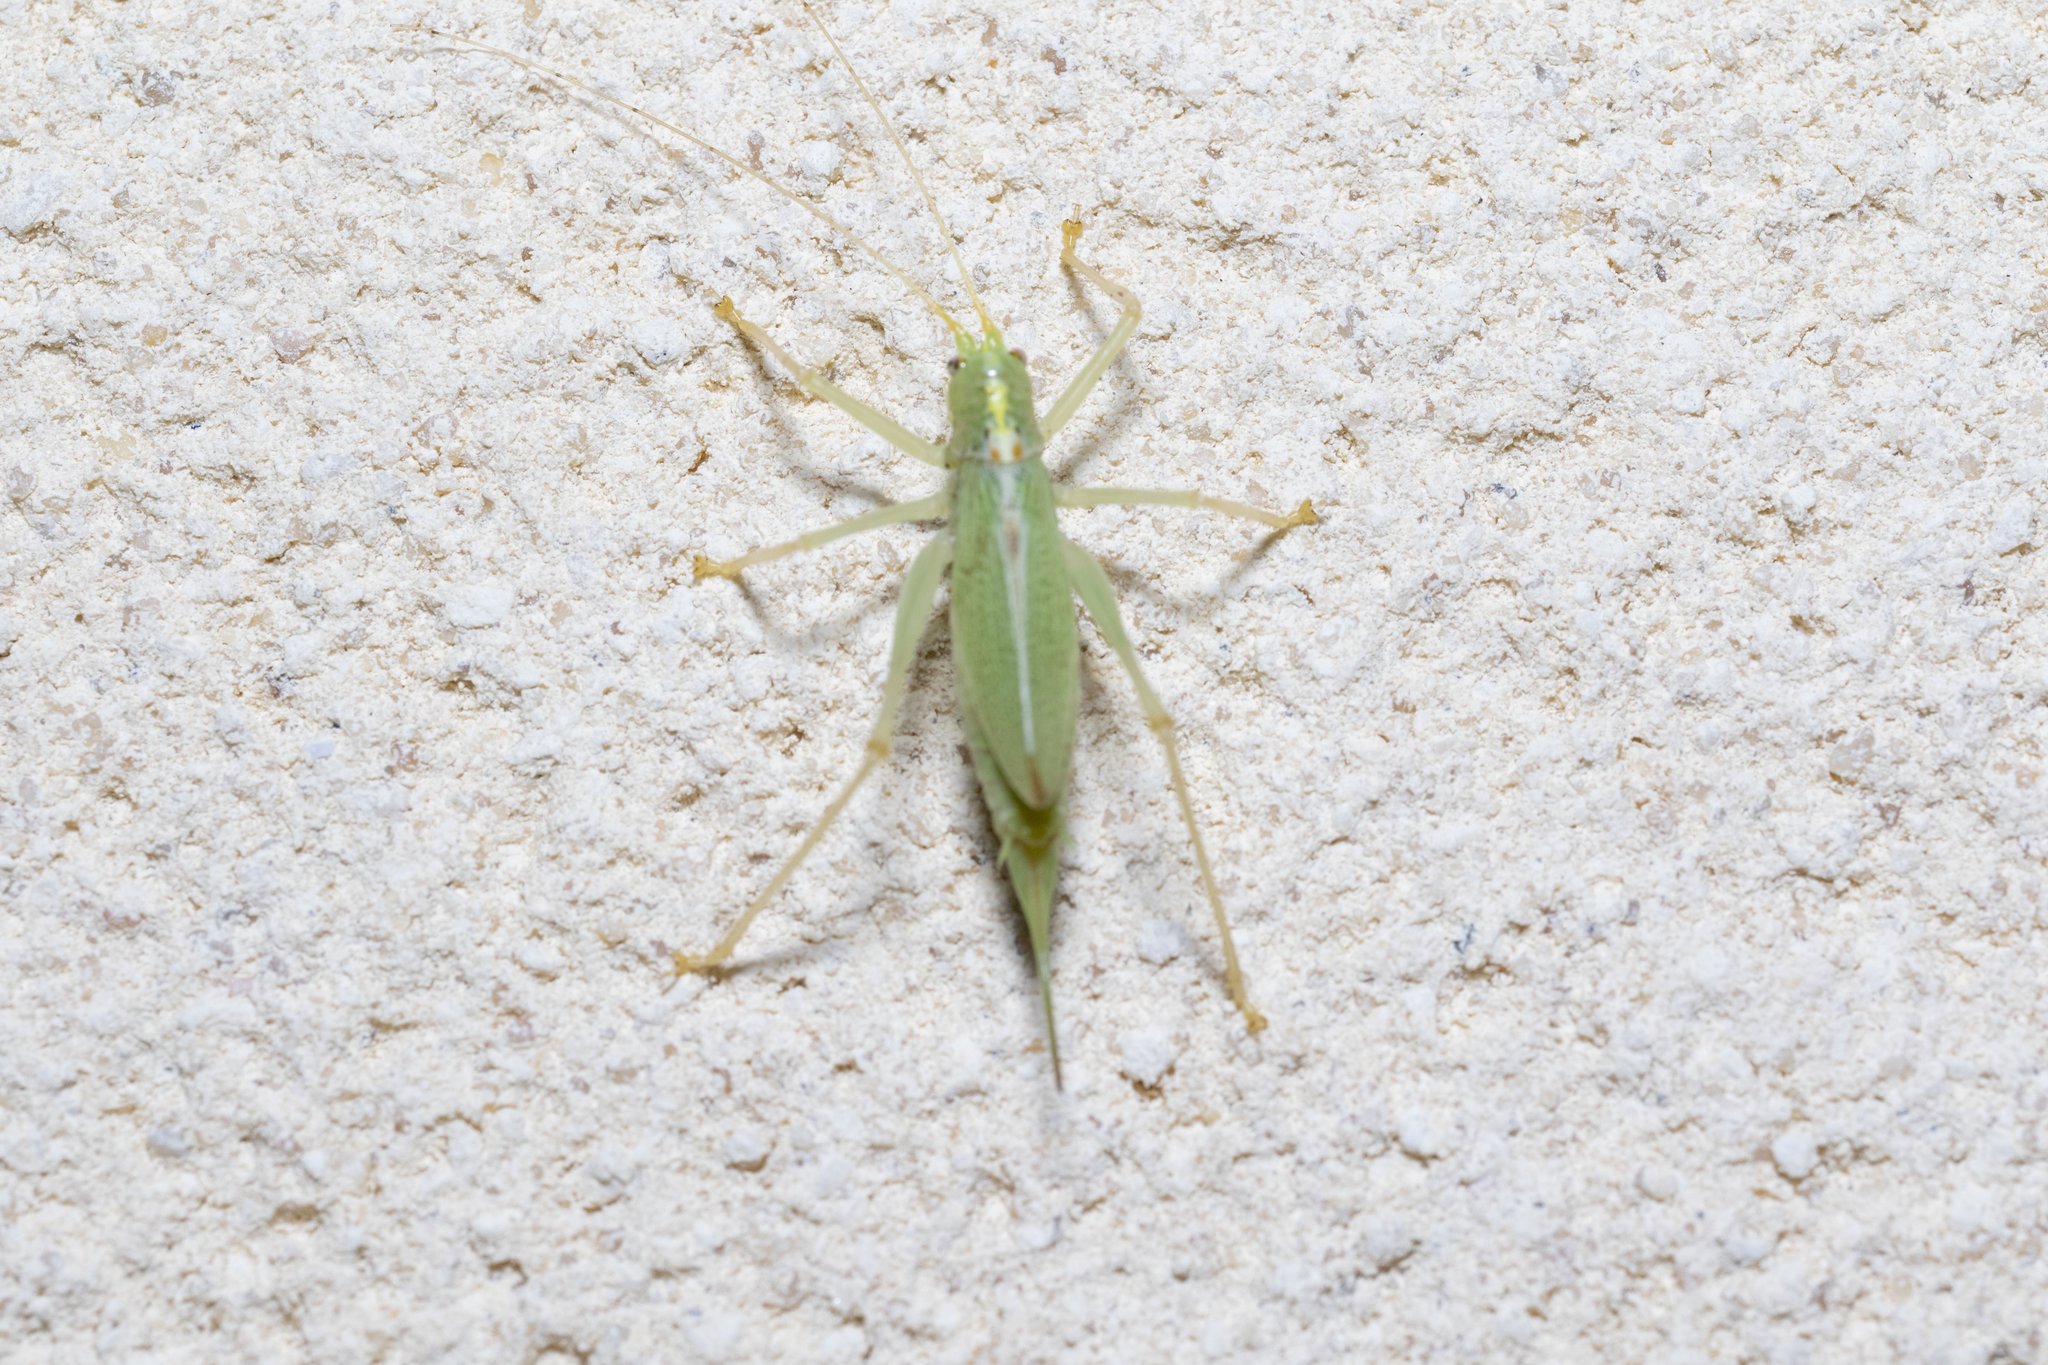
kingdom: Animalia
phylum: Arthropoda
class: Insecta
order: Orthoptera
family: Tettigoniidae
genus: Meconema
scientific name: Meconema thalassinum
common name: Oak bush-cricket
